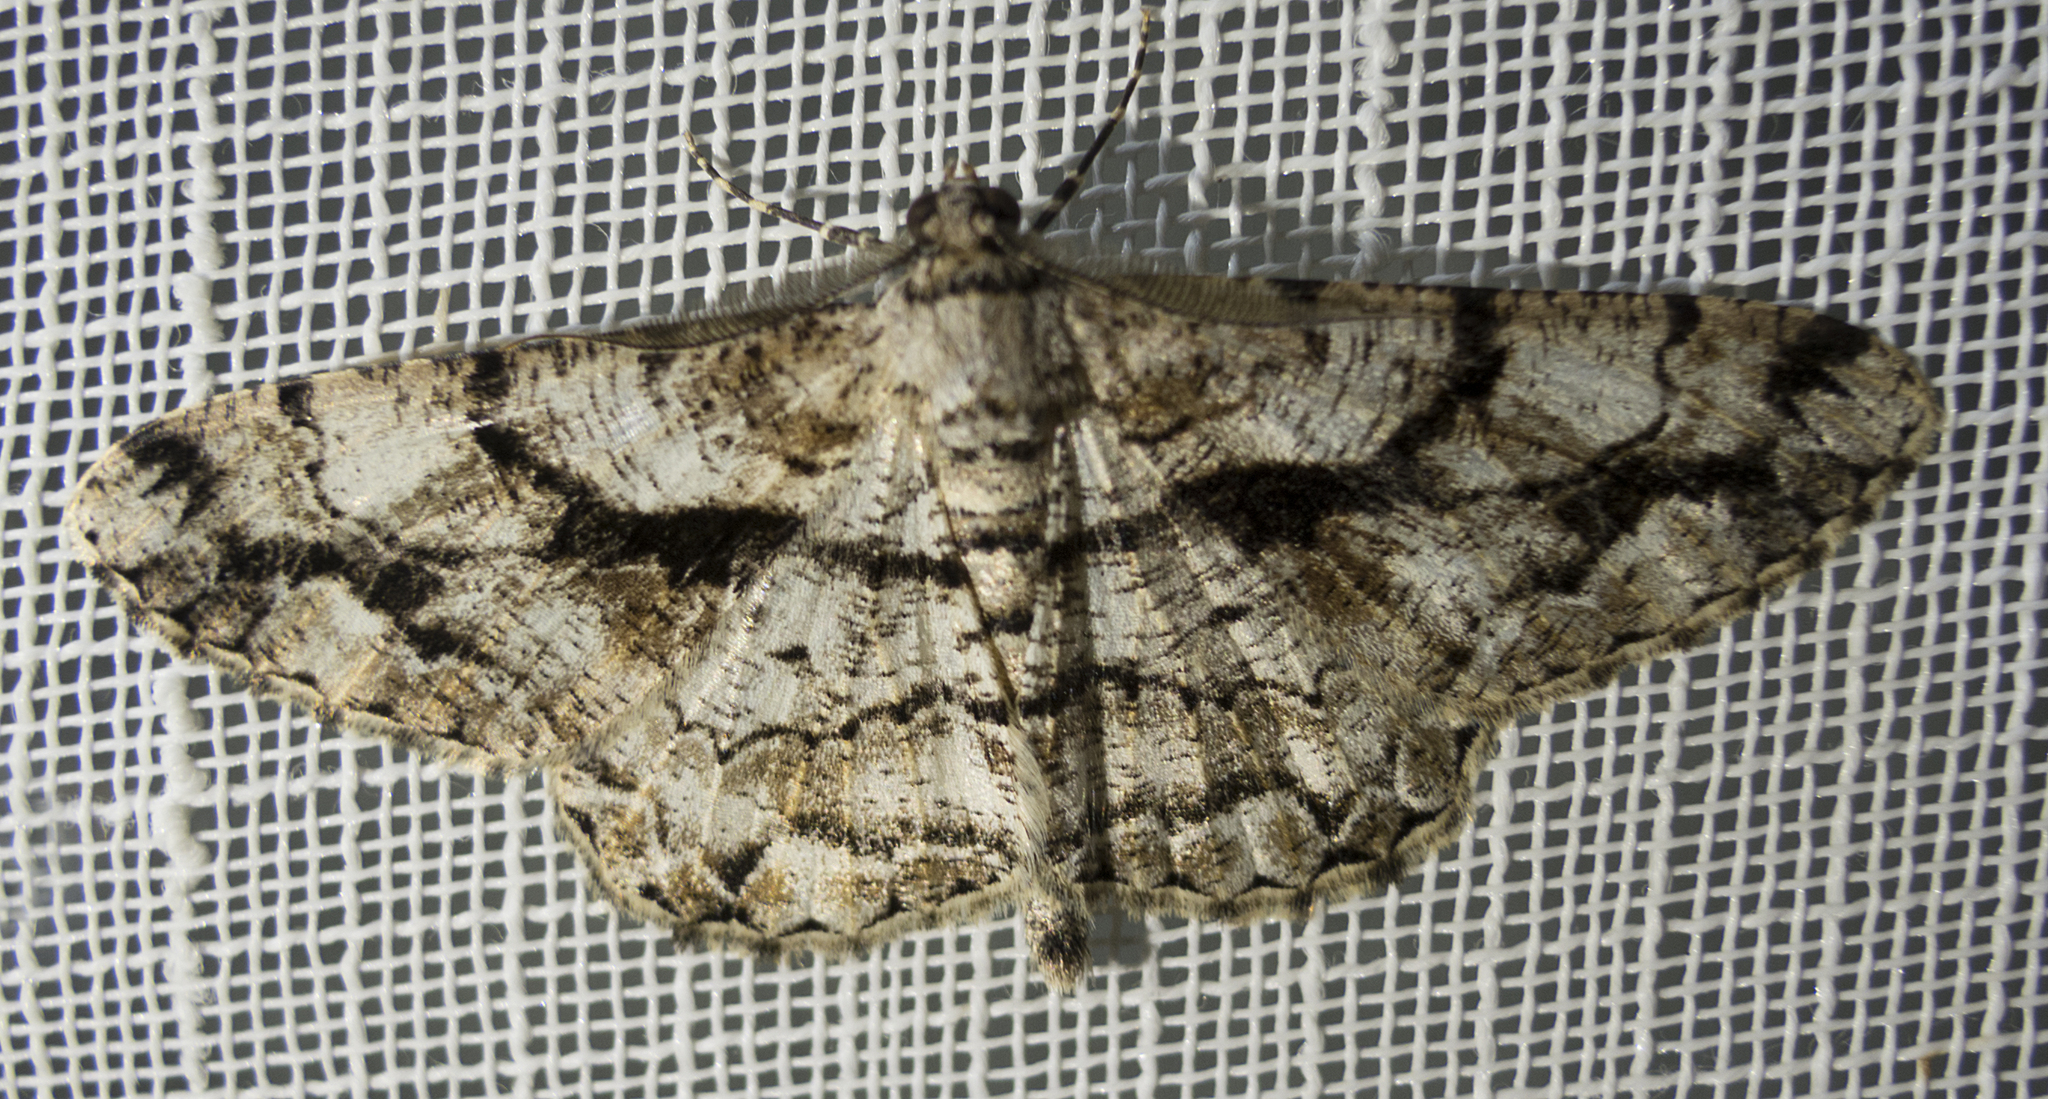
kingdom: Animalia
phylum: Arthropoda
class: Insecta
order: Lepidoptera
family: Geometridae
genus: Peribatodes
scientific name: Peribatodes umbraria
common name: Olive-tree beauty
